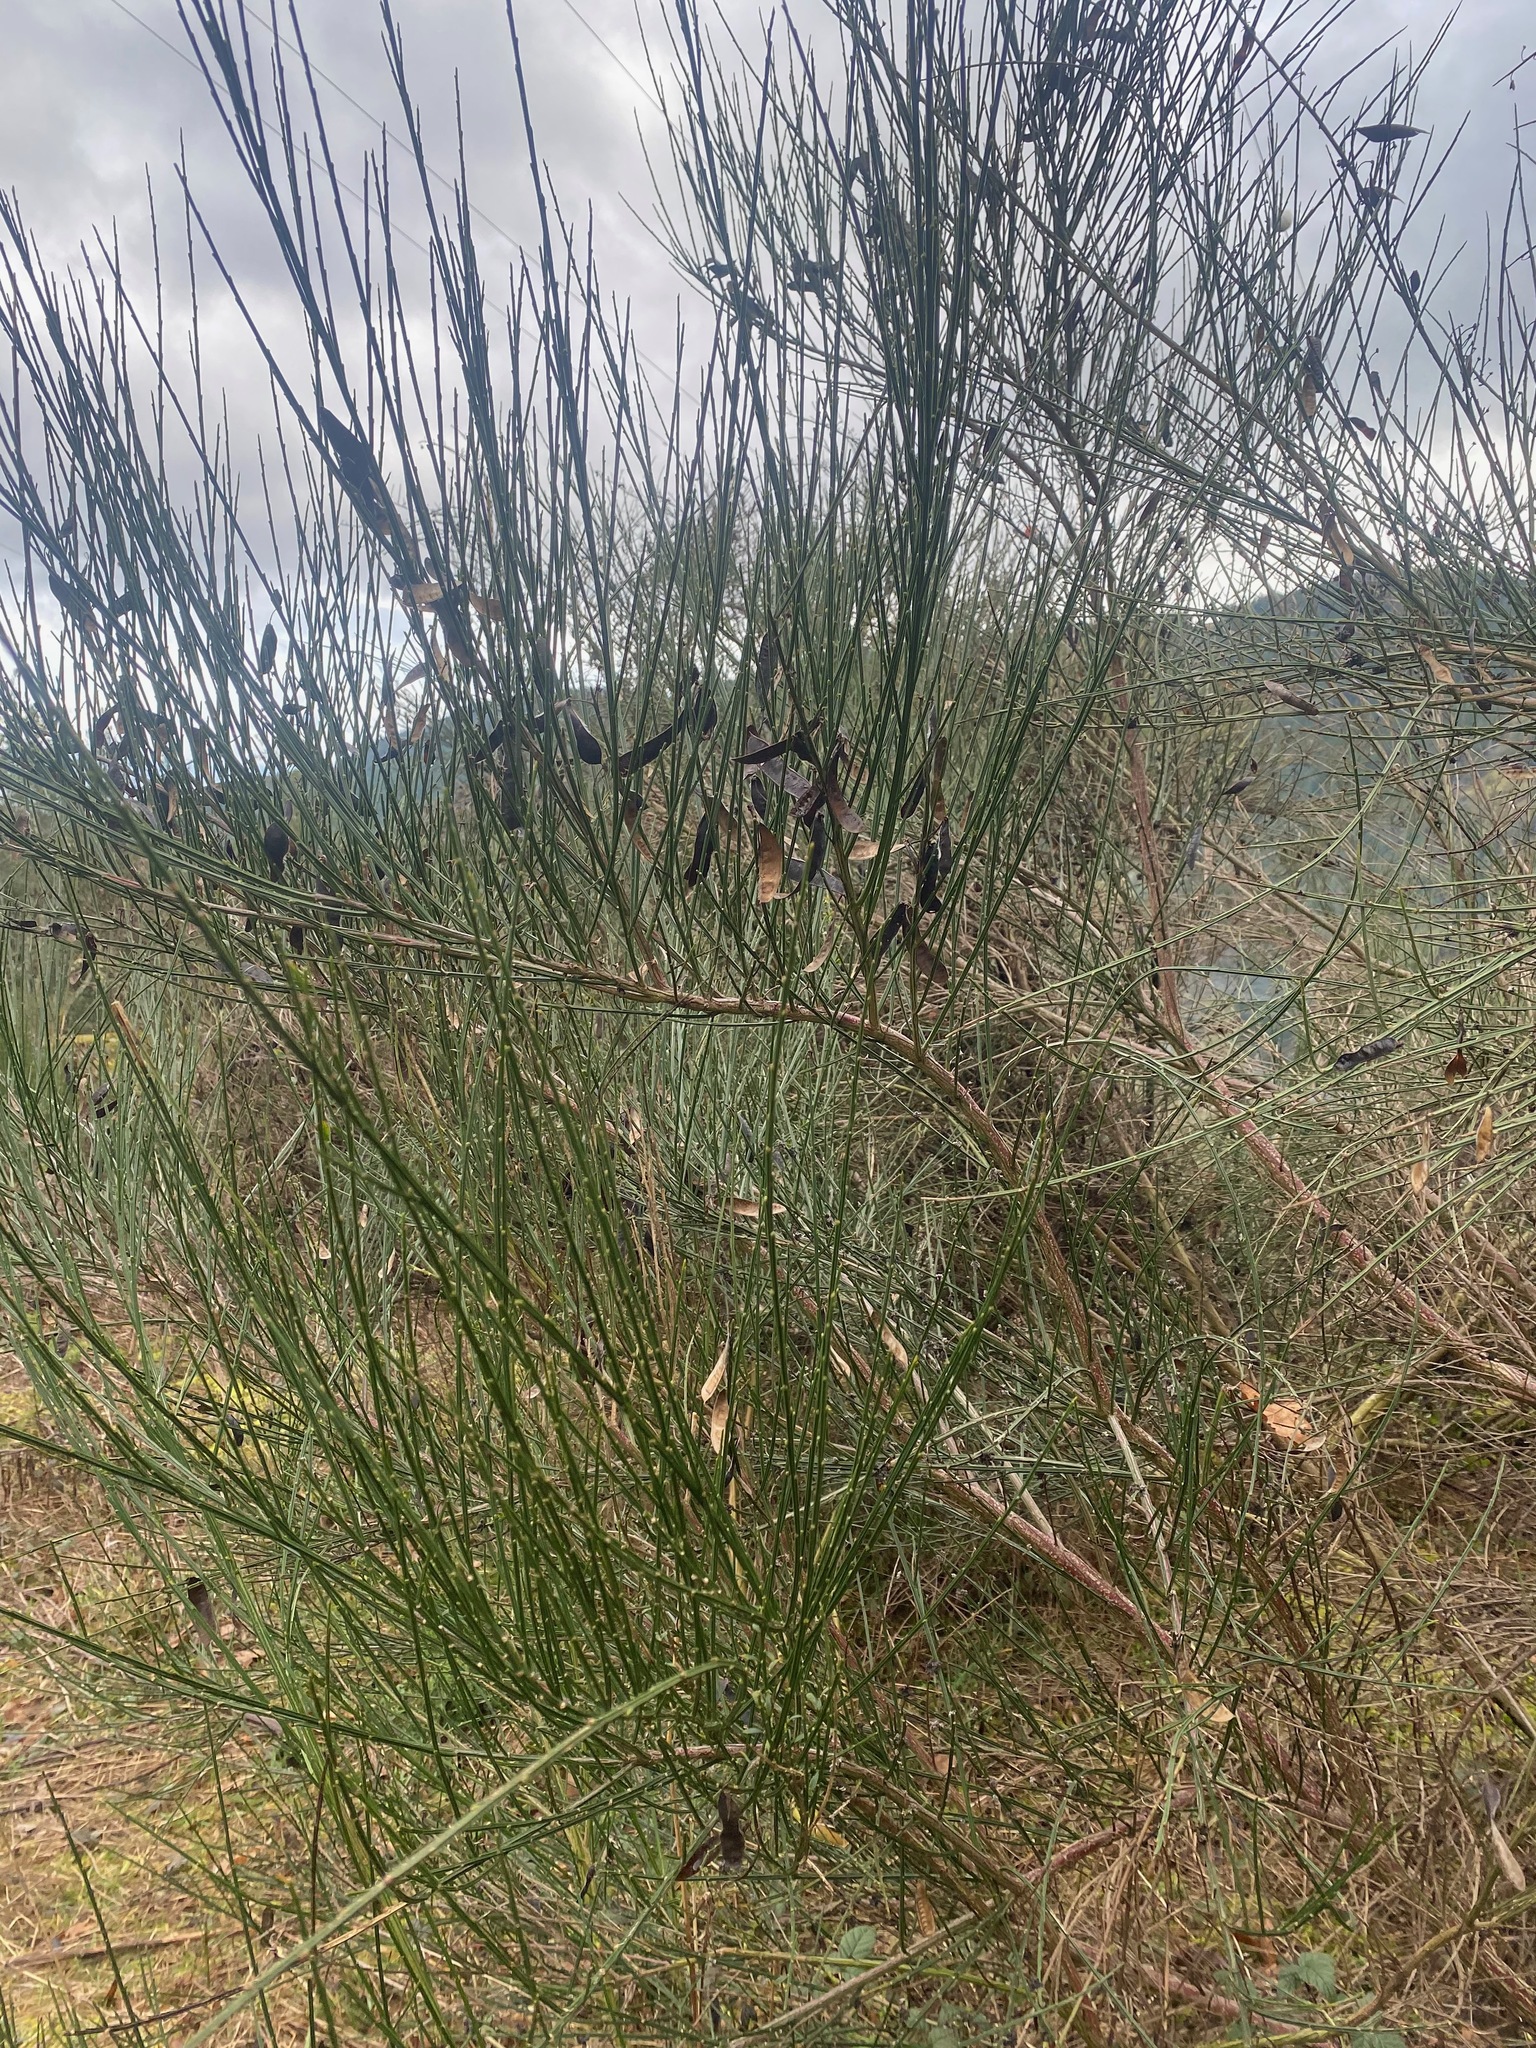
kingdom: Plantae
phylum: Tracheophyta
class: Magnoliopsida
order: Fabales
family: Fabaceae
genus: Cytisus
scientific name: Cytisus scoparius
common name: Scotch broom
